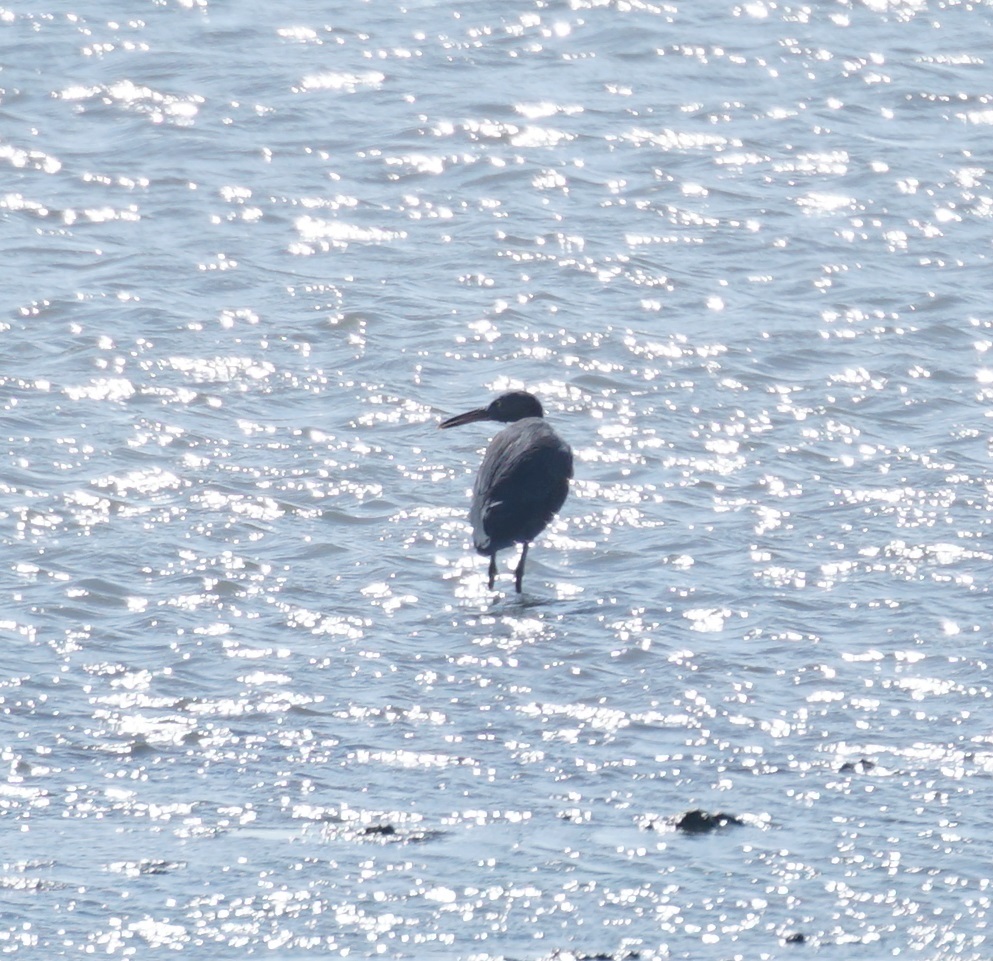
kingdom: Animalia
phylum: Chordata
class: Aves
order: Pelecaniformes
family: Ardeidae
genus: Egretta
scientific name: Egretta sacra
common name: Pacific reef heron
